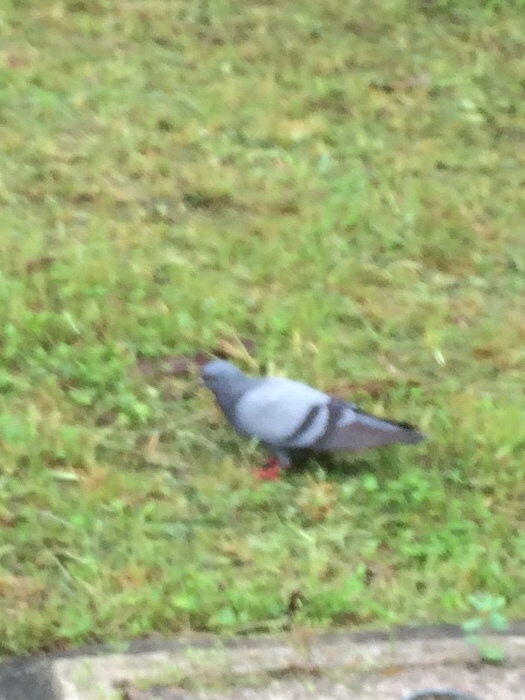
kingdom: Animalia
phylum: Chordata
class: Aves
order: Columbiformes
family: Columbidae
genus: Columba
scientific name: Columba livia
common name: Rock pigeon
